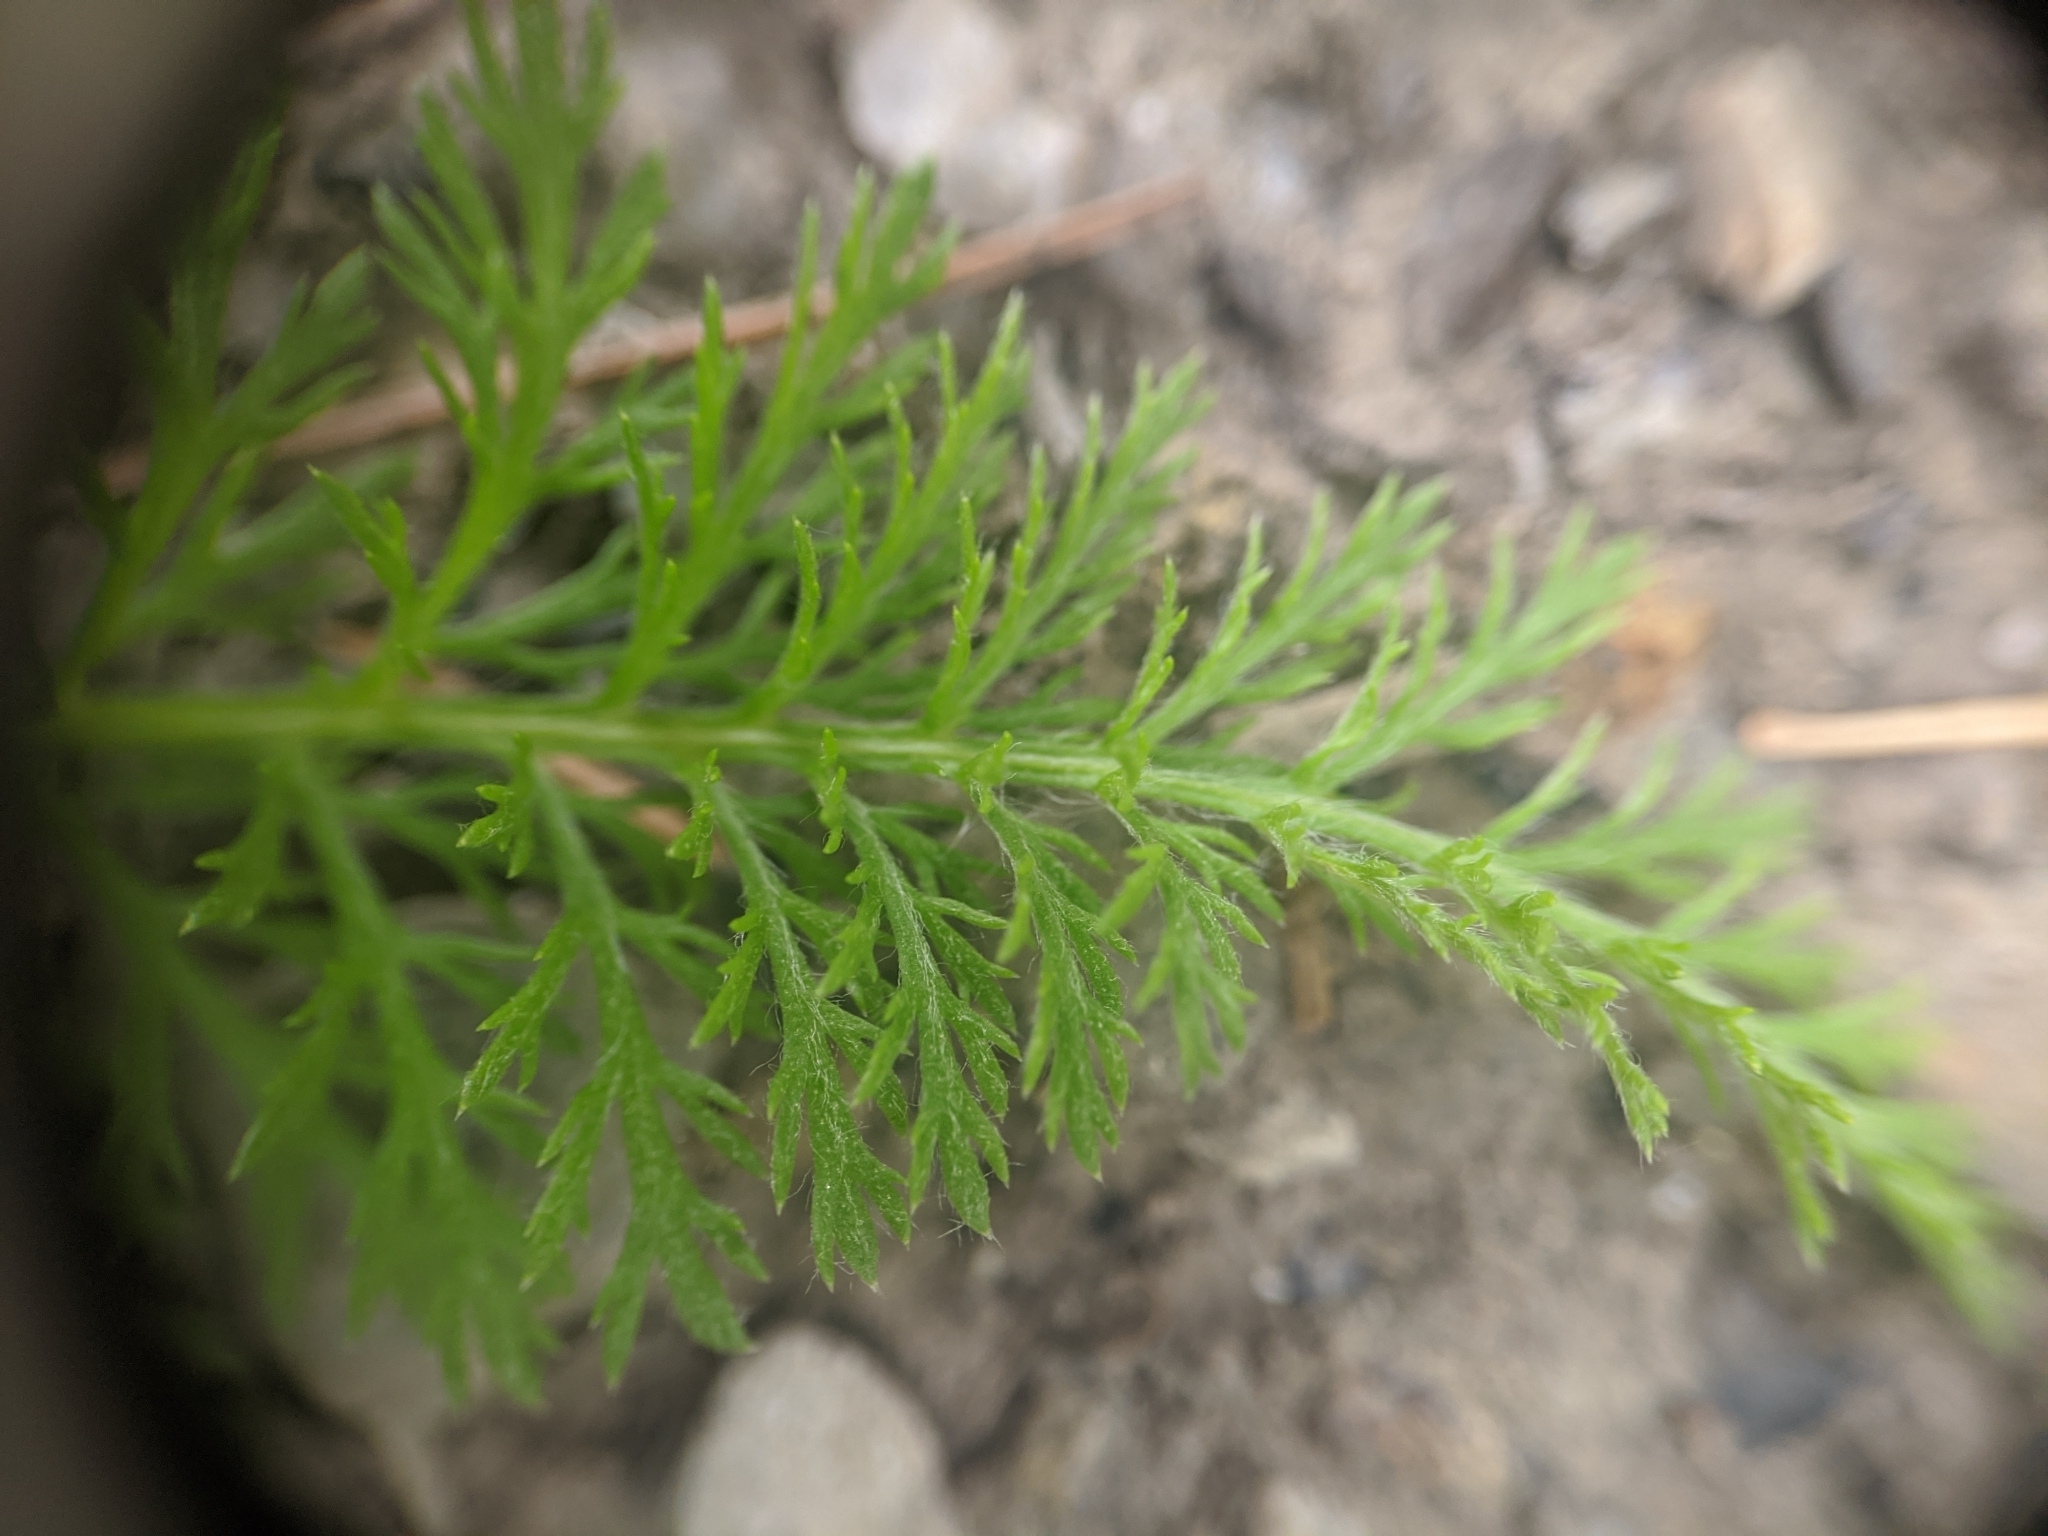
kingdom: Plantae
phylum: Tracheophyta
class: Magnoliopsida
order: Asterales
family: Asteraceae
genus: Achillea
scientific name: Achillea millefolium
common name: Yarrow
